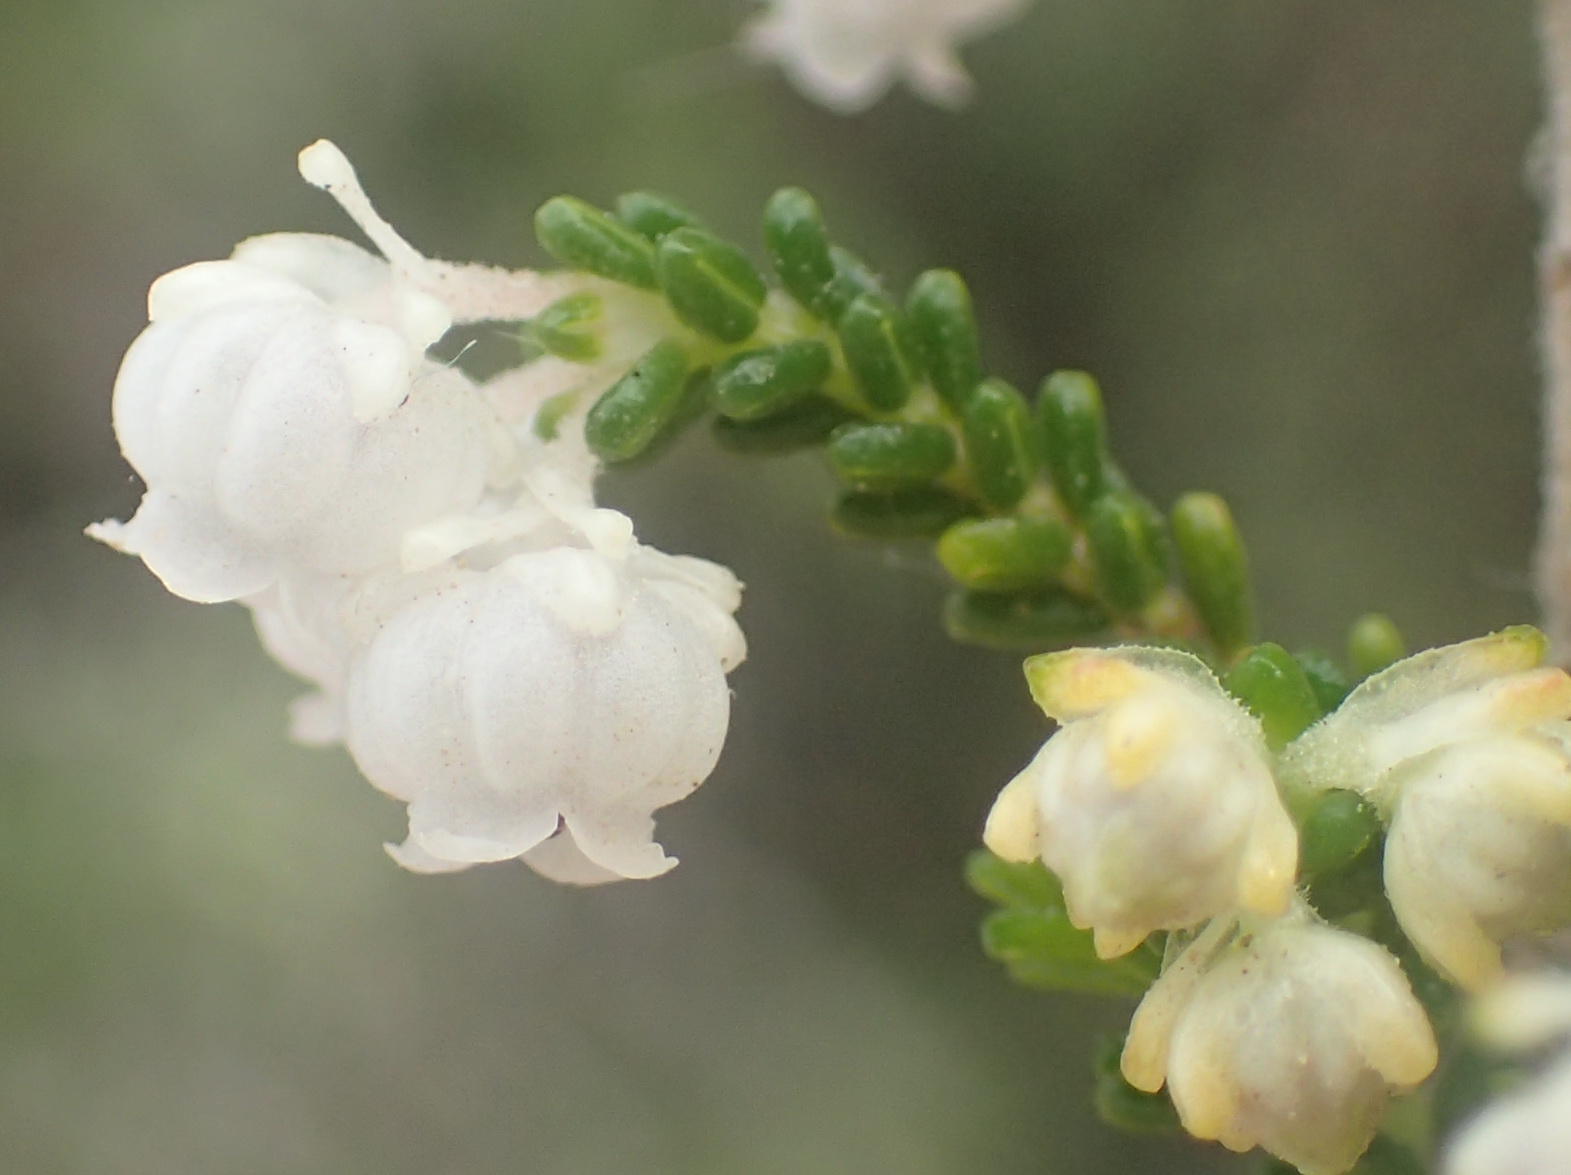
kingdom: Plantae
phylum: Tracheophyta
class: Magnoliopsida
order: Ericales
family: Ericaceae
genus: Erica
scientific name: Erica formosa
